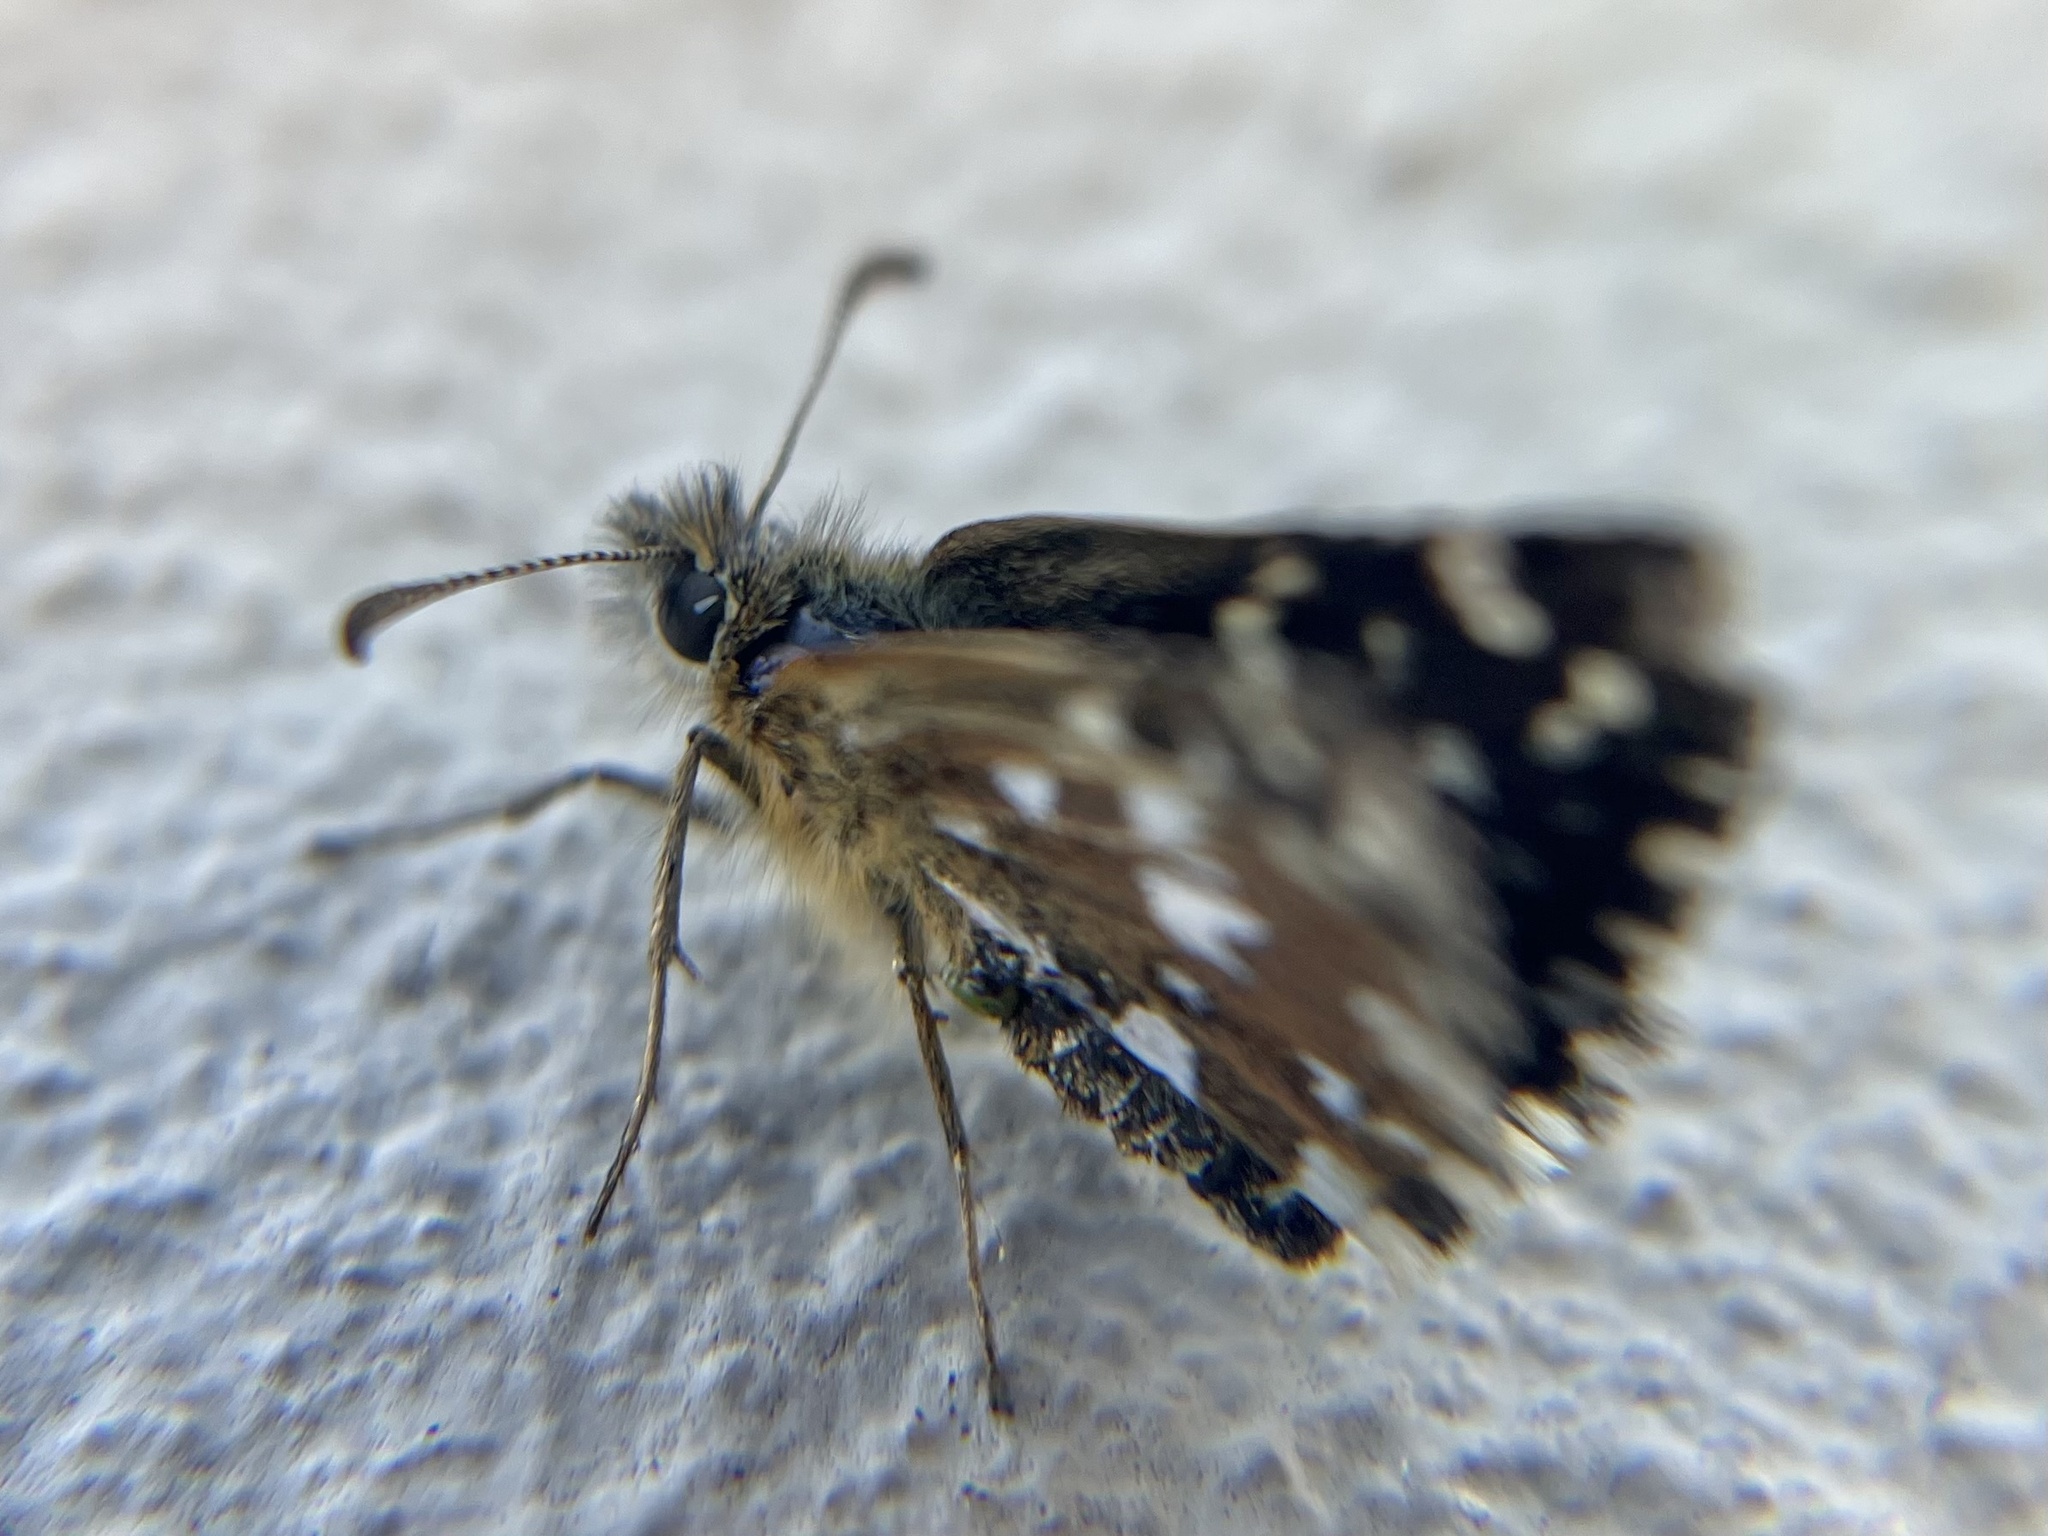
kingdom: Animalia
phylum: Arthropoda
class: Insecta
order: Lepidoptera
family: Hesperiidae
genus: Pyrgus
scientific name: Pyrgus malvae
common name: Grizzled skipper
